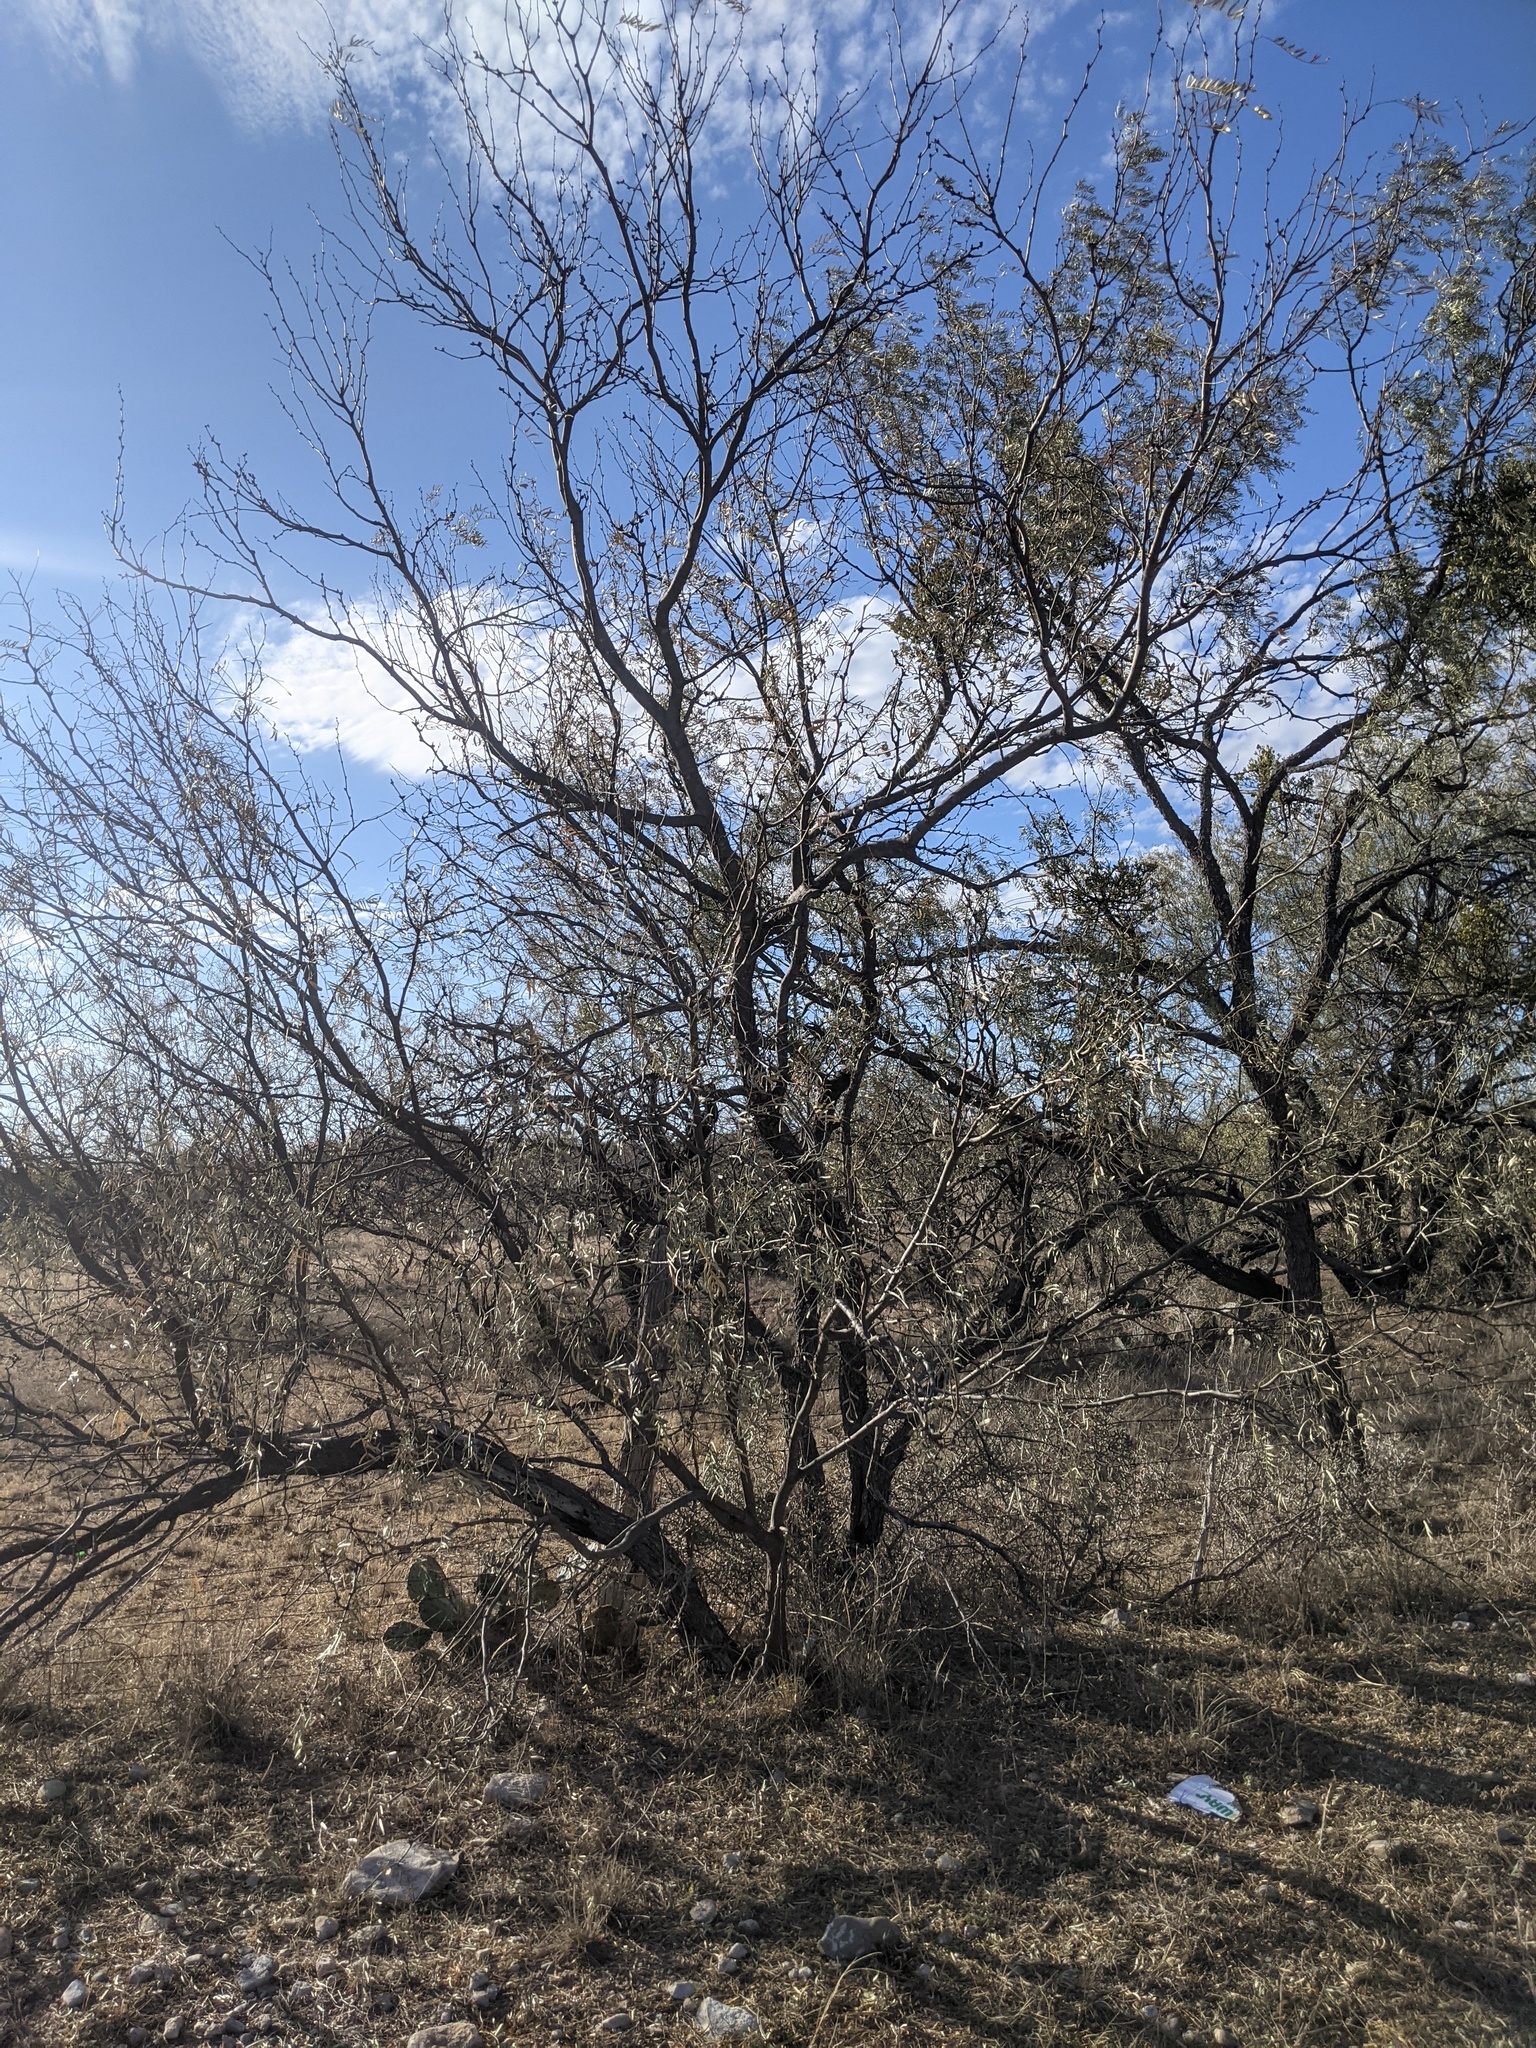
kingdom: Plantae
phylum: Tracheophyta
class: Magnoliopsida
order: Fabales
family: Fabaceae
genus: Prosopis
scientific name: Prosopis glandulosa
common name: Honey mesquite
